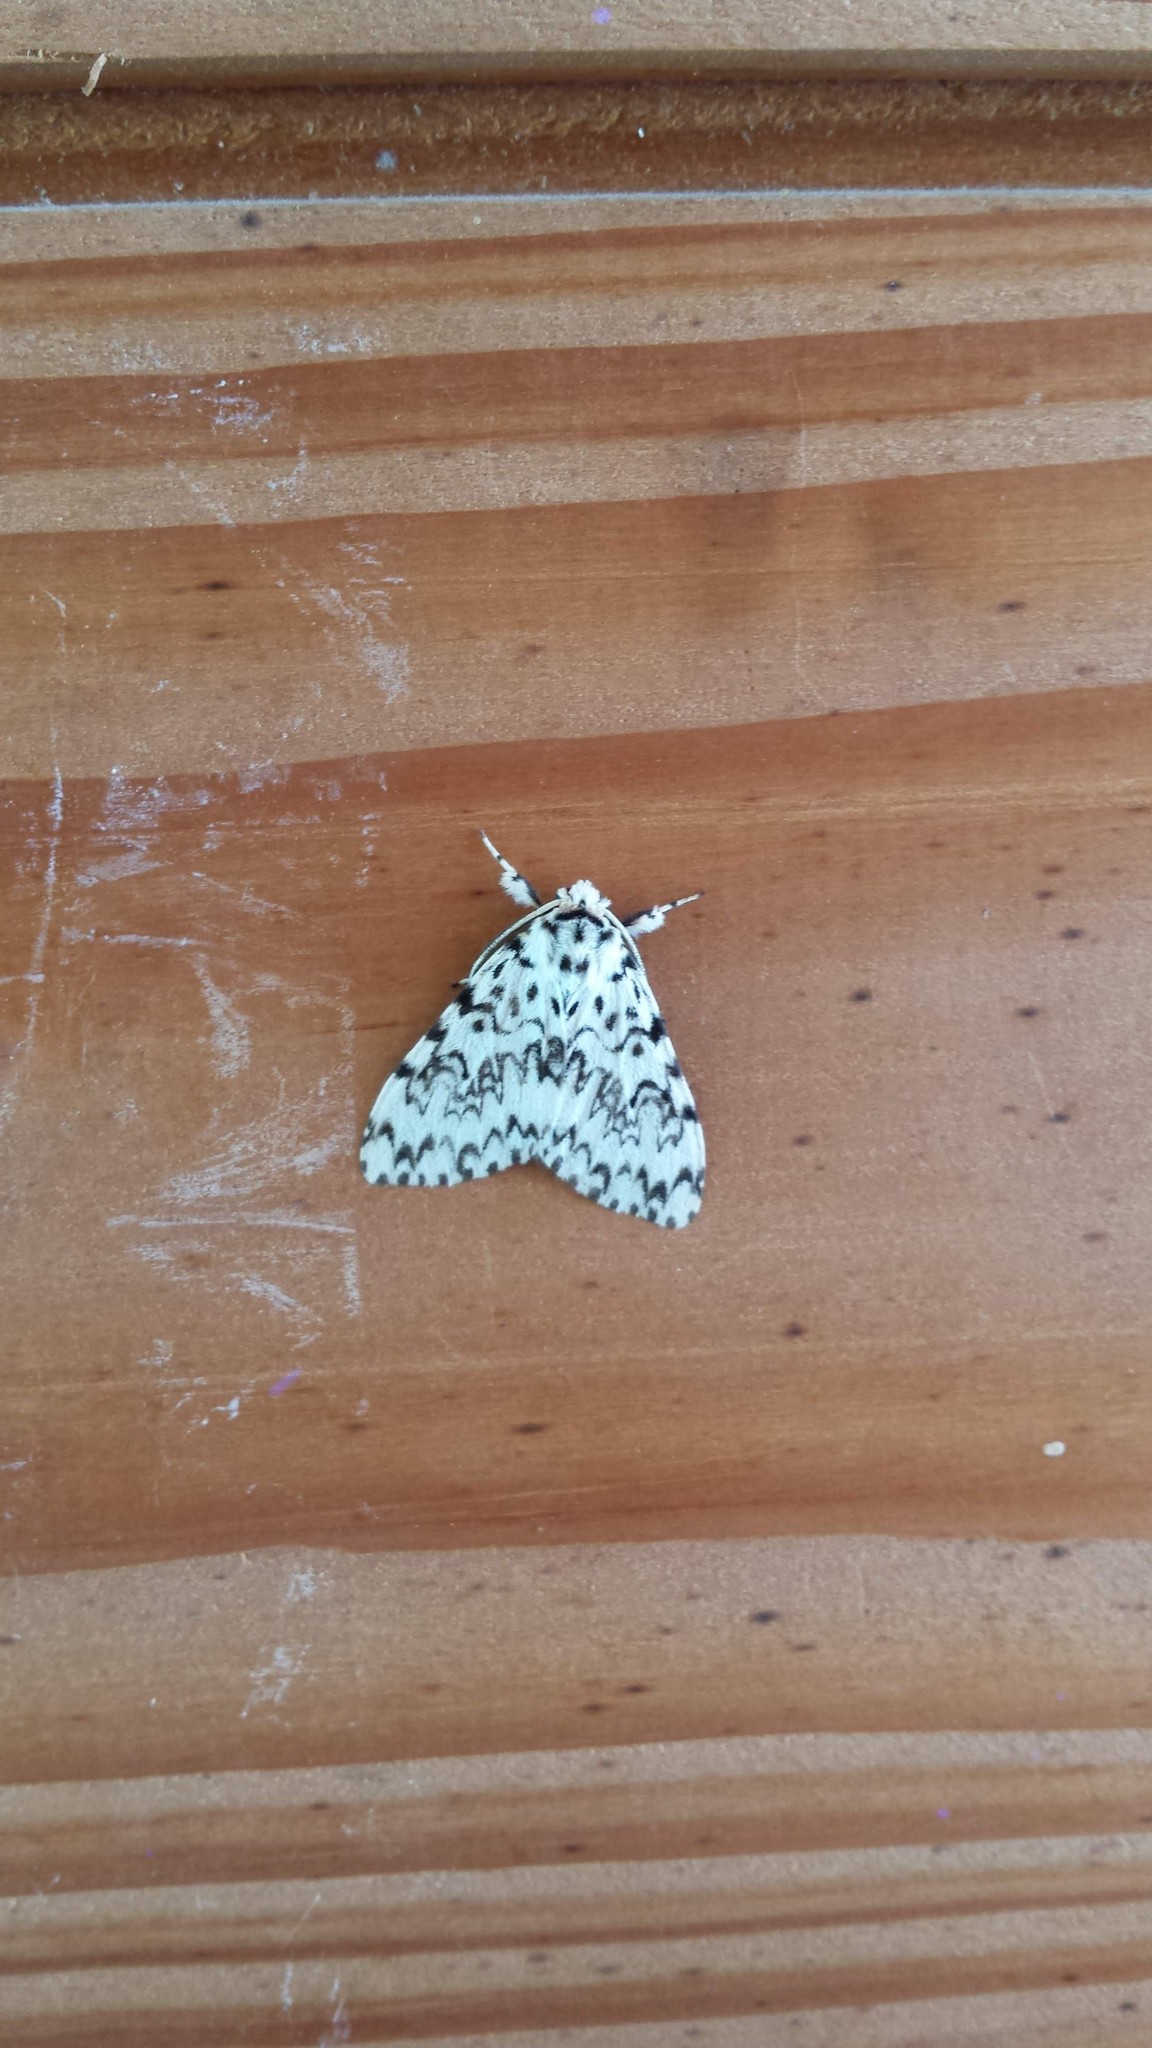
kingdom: Animalia
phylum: Arthropoda
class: Insecta
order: Lepidoptera
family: Erebidae
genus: Lymantria
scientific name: Lymantria monacha
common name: Black arches
